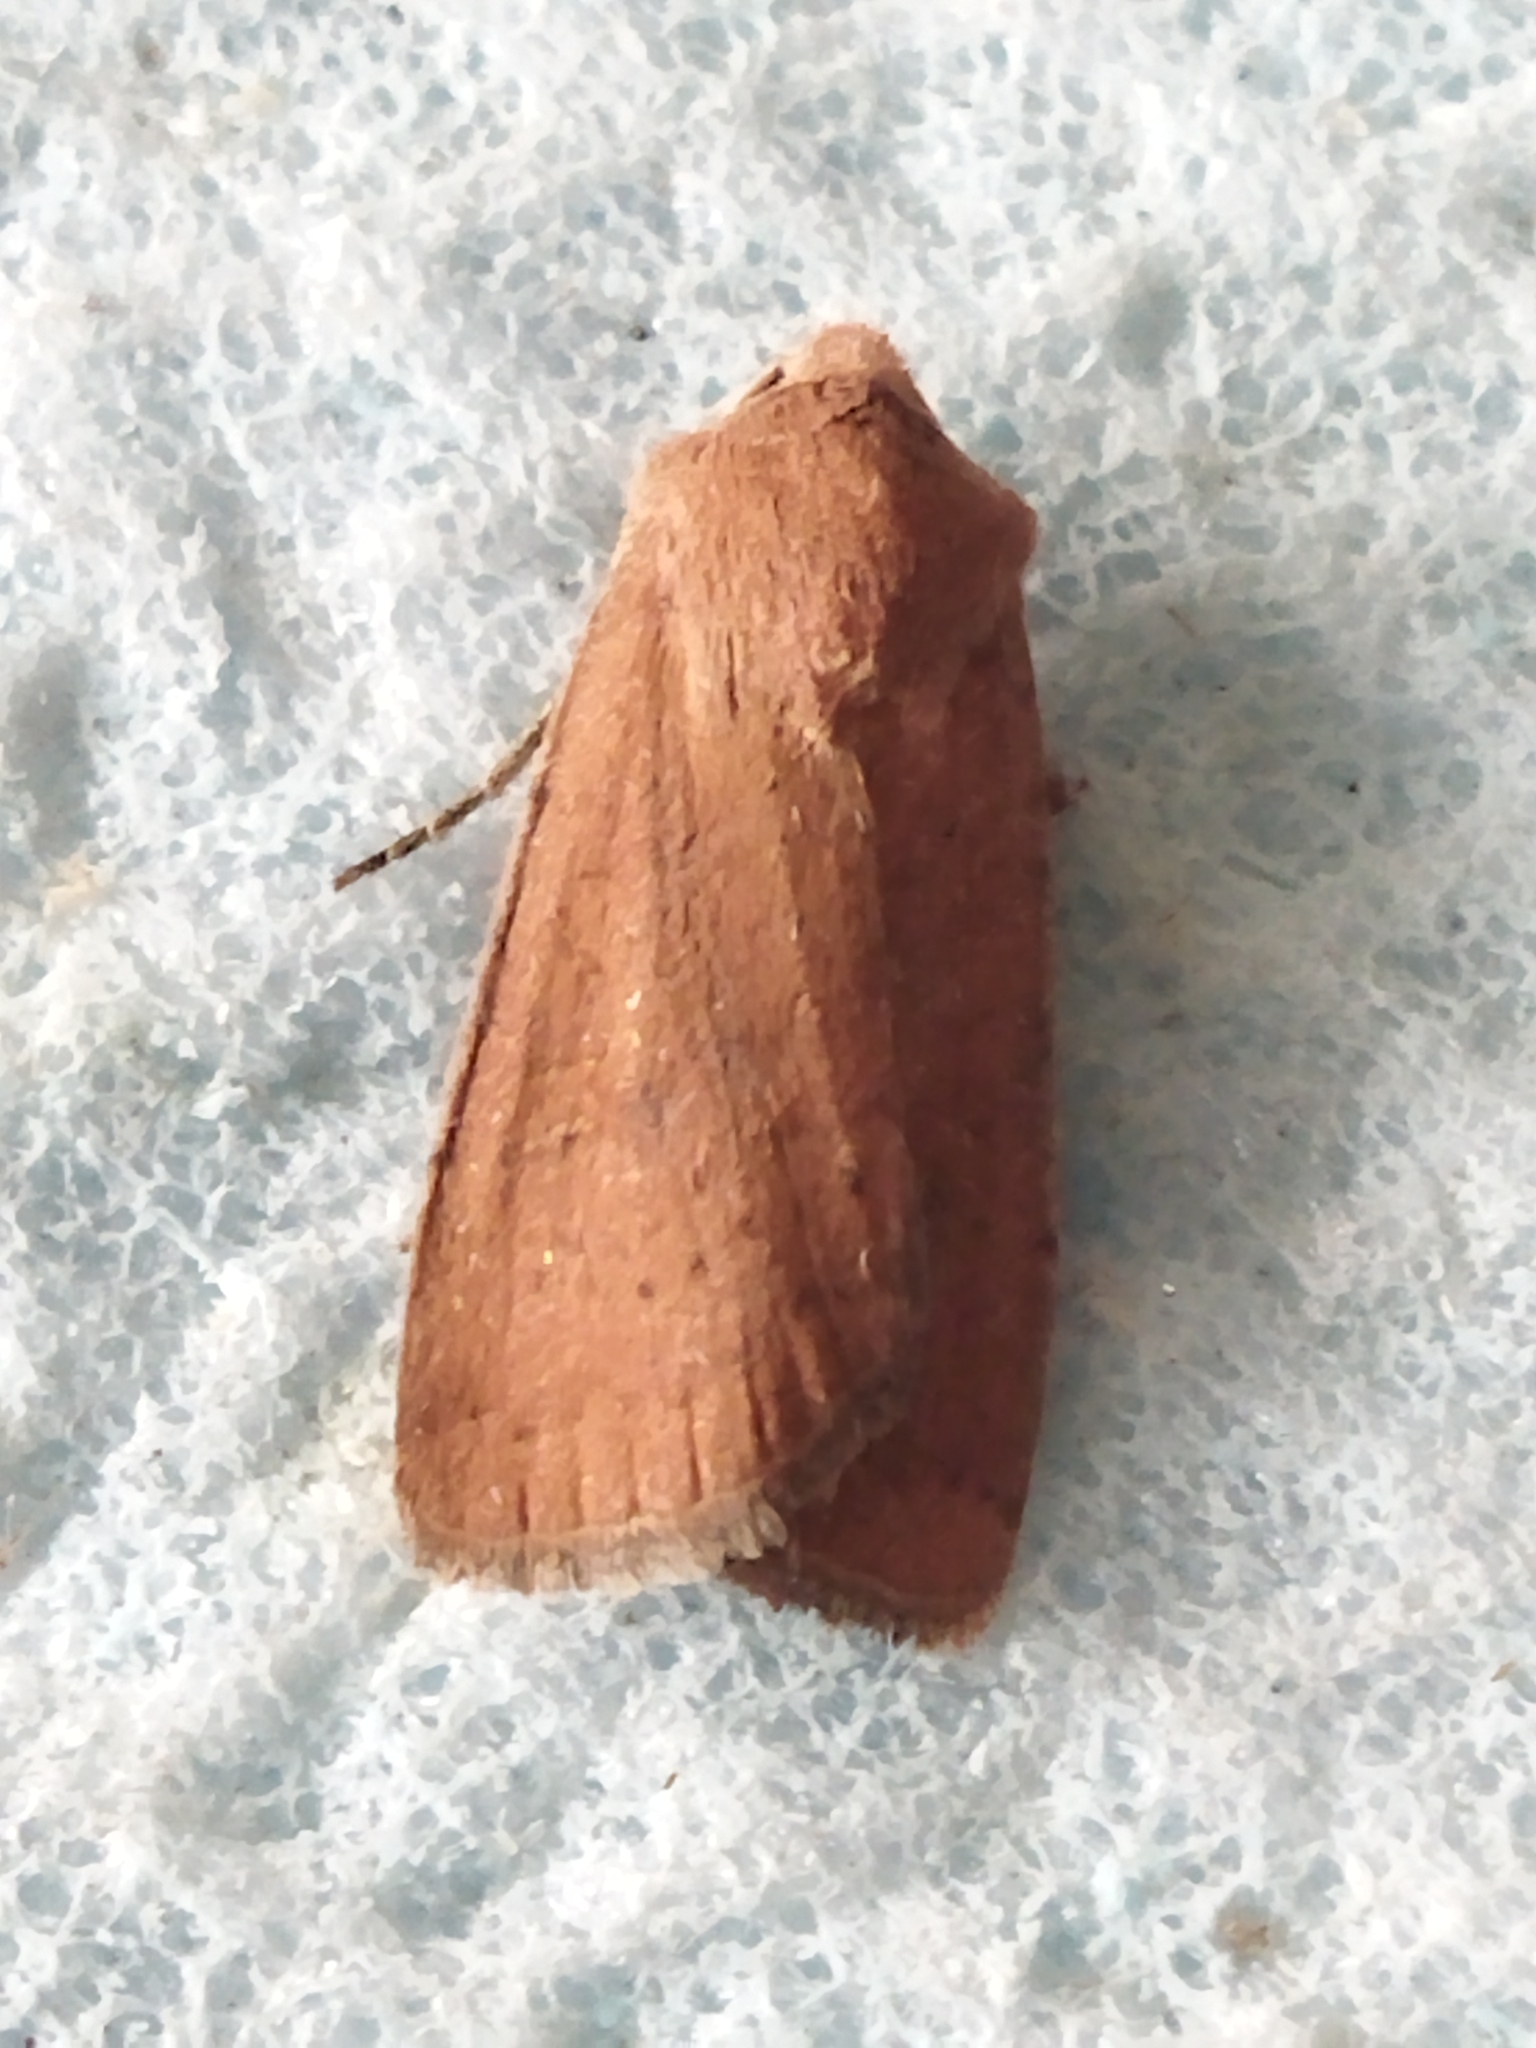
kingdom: Animalia
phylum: Arthropoda
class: Insecta
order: Lepidoptera
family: Noctuidae
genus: Xestia
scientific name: Xestia xanthographa
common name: Square-spot rustic
